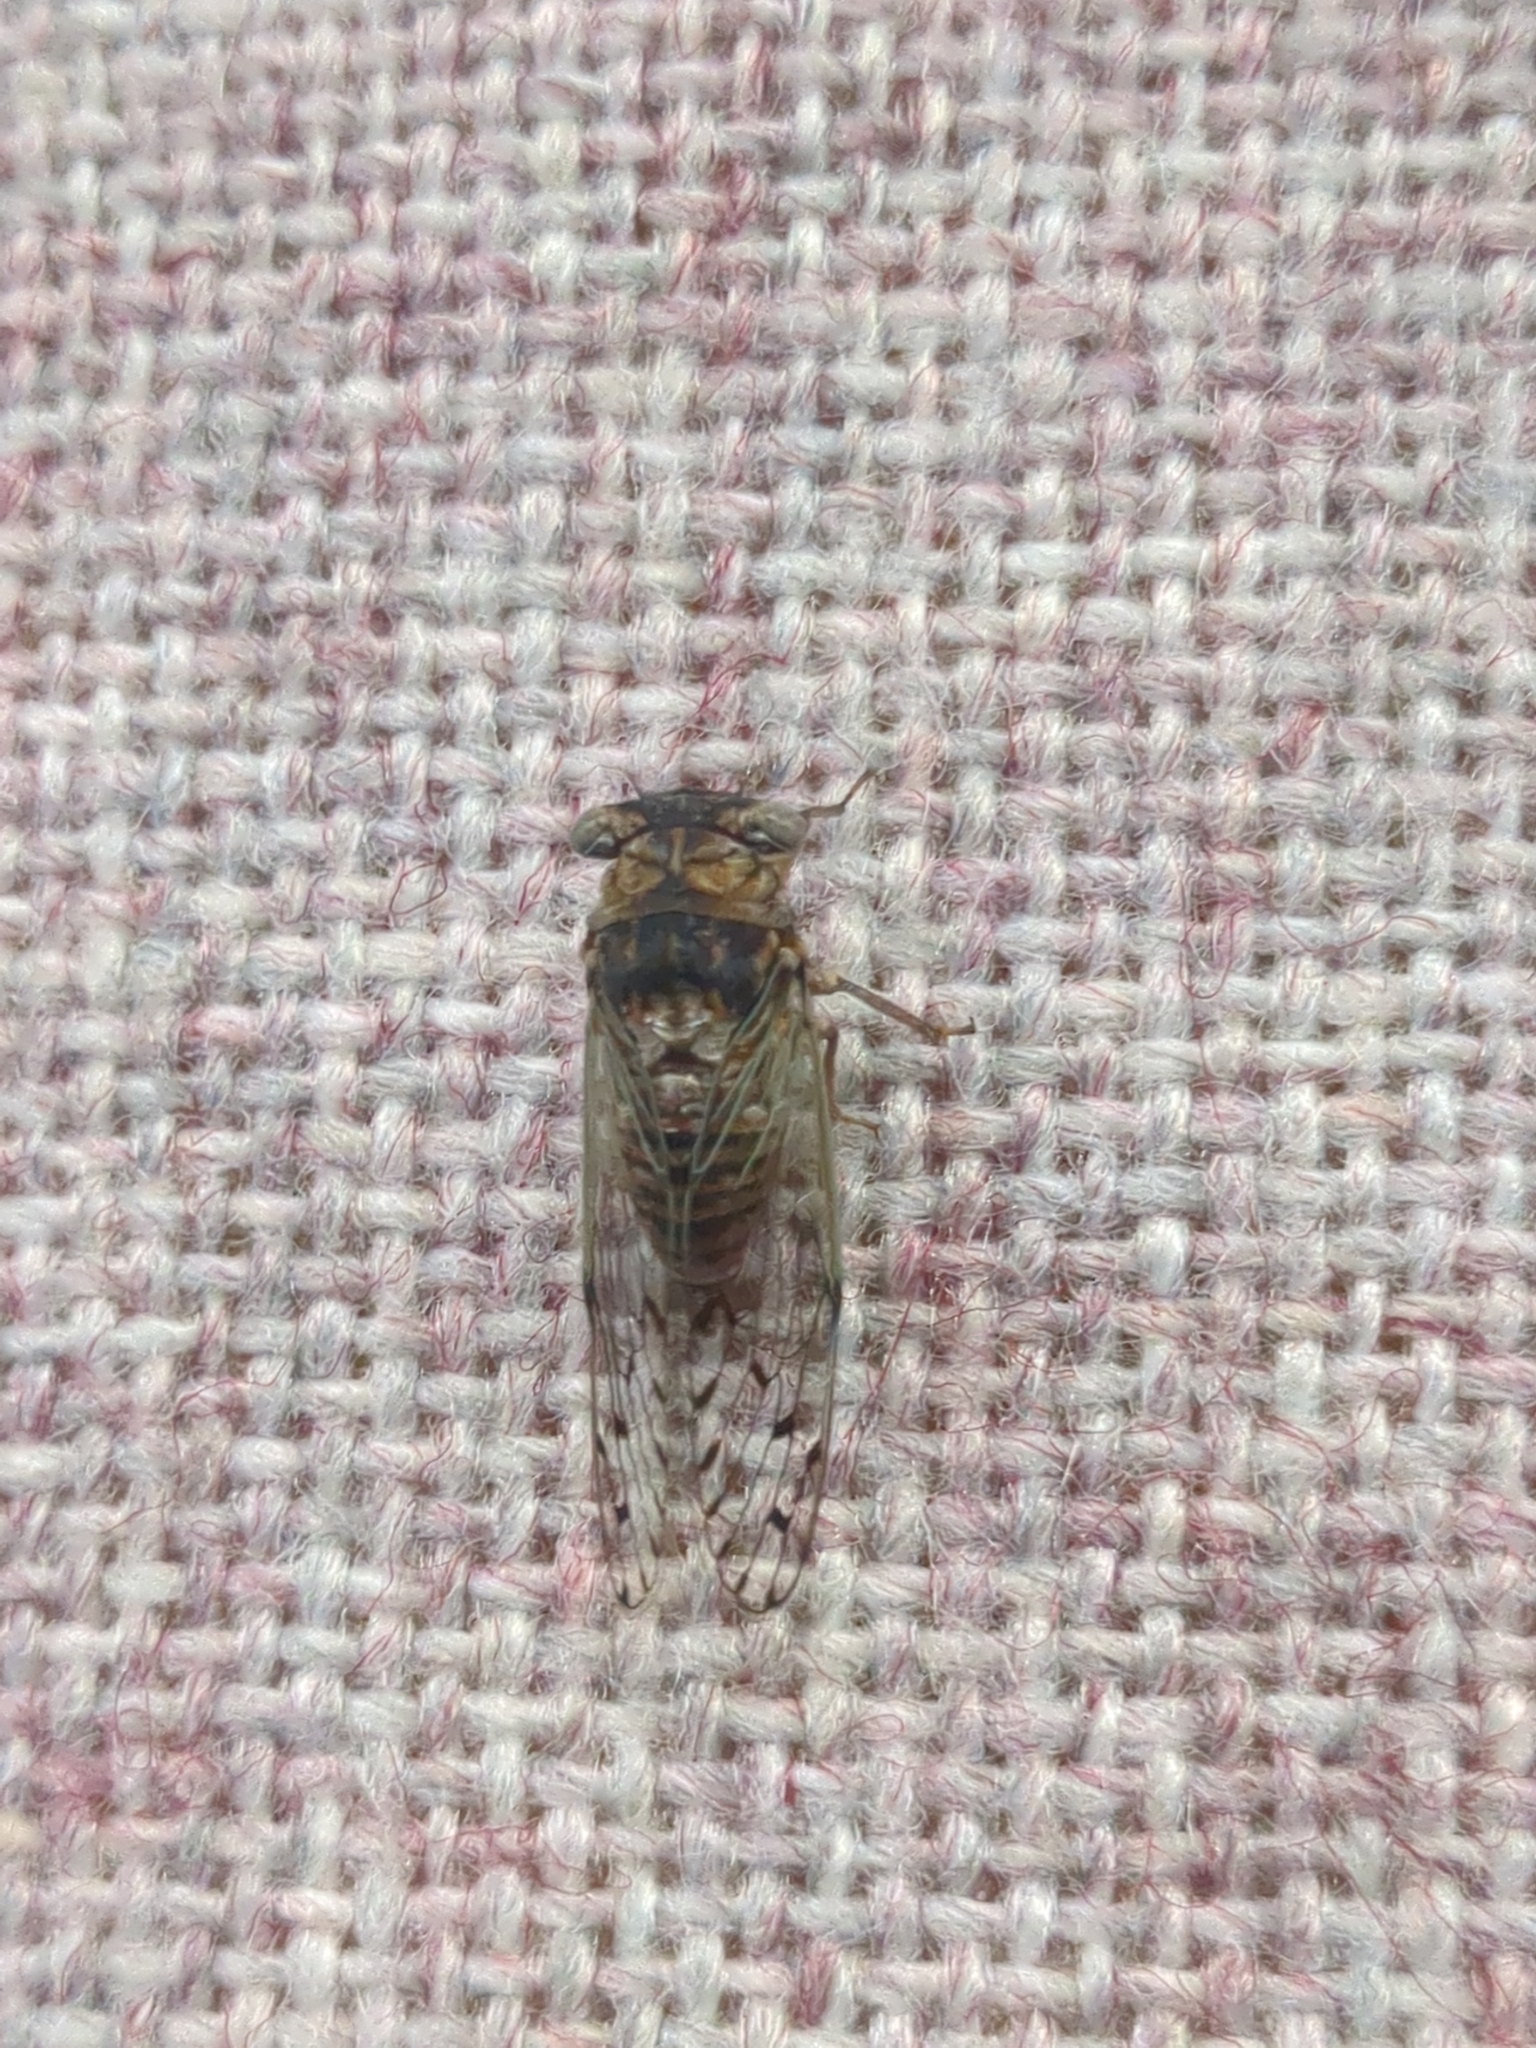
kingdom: Animalia
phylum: Arthropoda
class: Insecta
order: Hemiptera
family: Cicadidae
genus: Pacarina
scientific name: Pacarina puella
